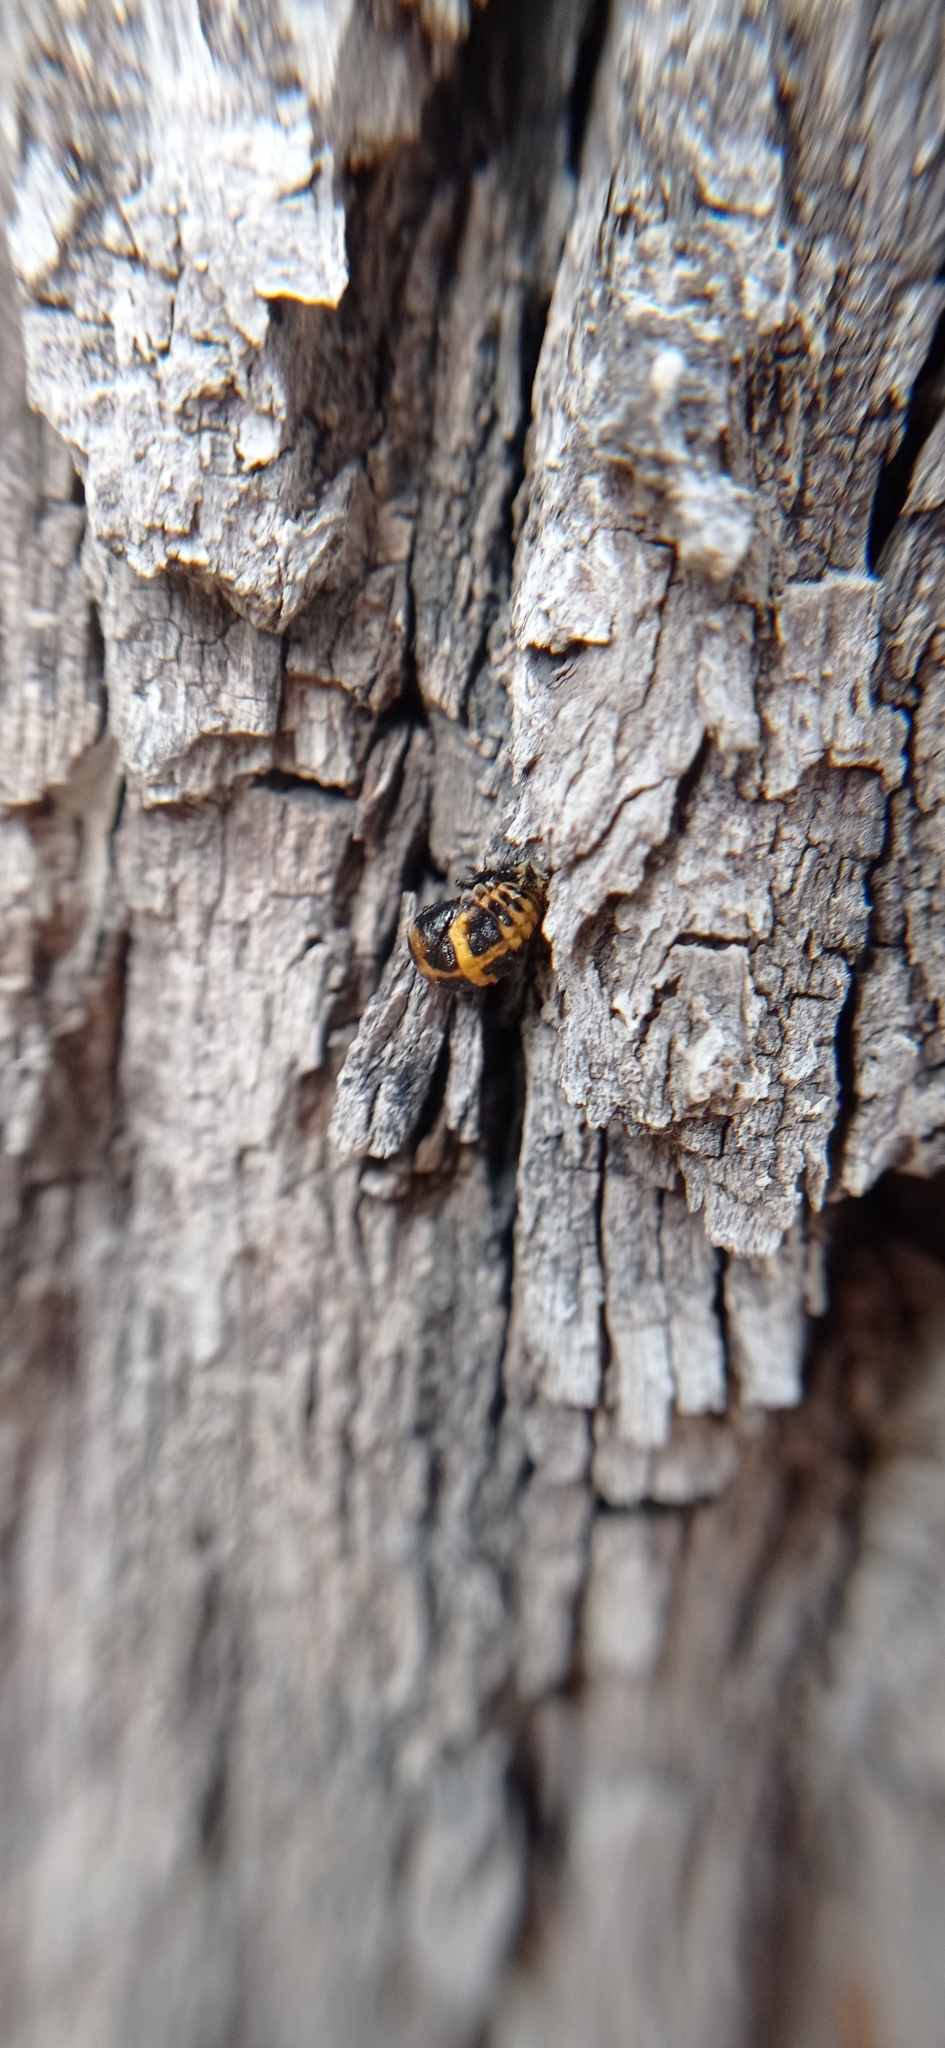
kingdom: Animalia
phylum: Arthropoda
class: Insecta
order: Coleoptera
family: Coccinellidae
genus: Harmonia
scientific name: Harmonia axyridis
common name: Harlequin ladybird
